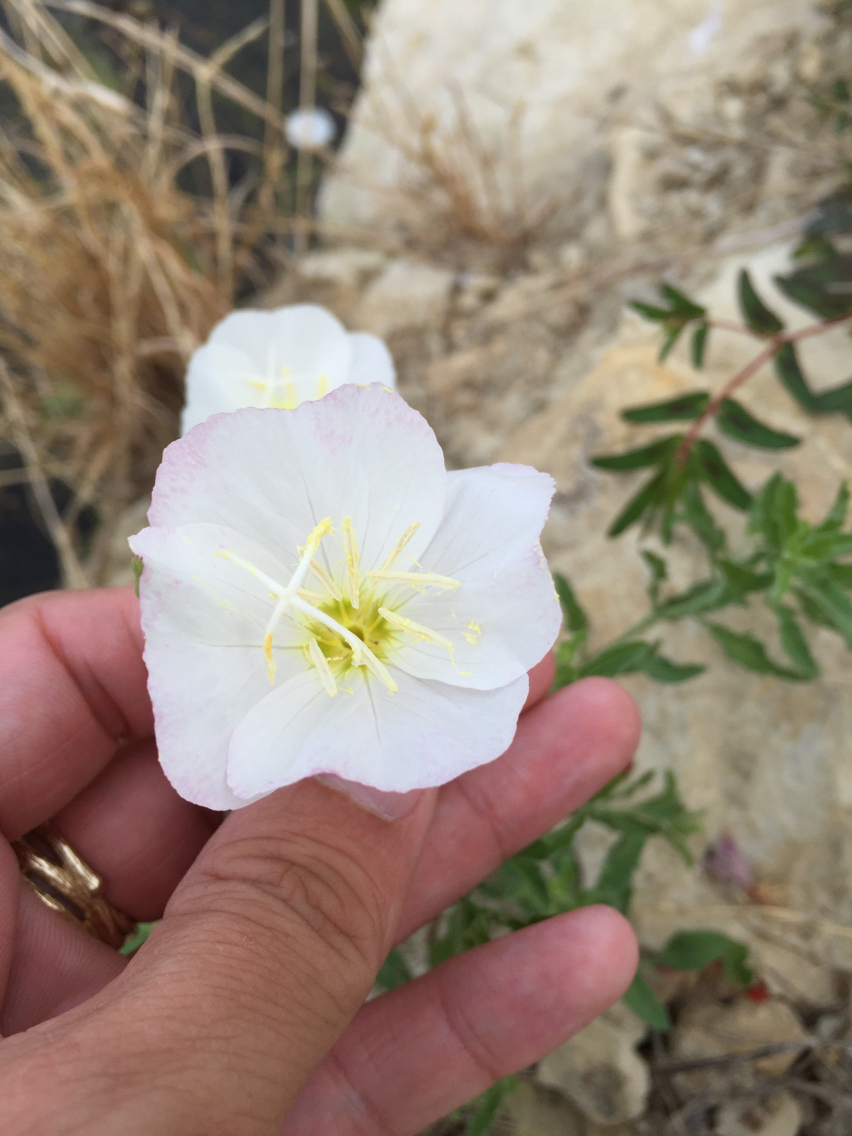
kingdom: Plantae
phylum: Tracheophyta
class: Magnoliopsida
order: Myrtales
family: Onagraceae
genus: Oenothera
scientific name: Oenothera speciosa
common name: White evening-primrose
